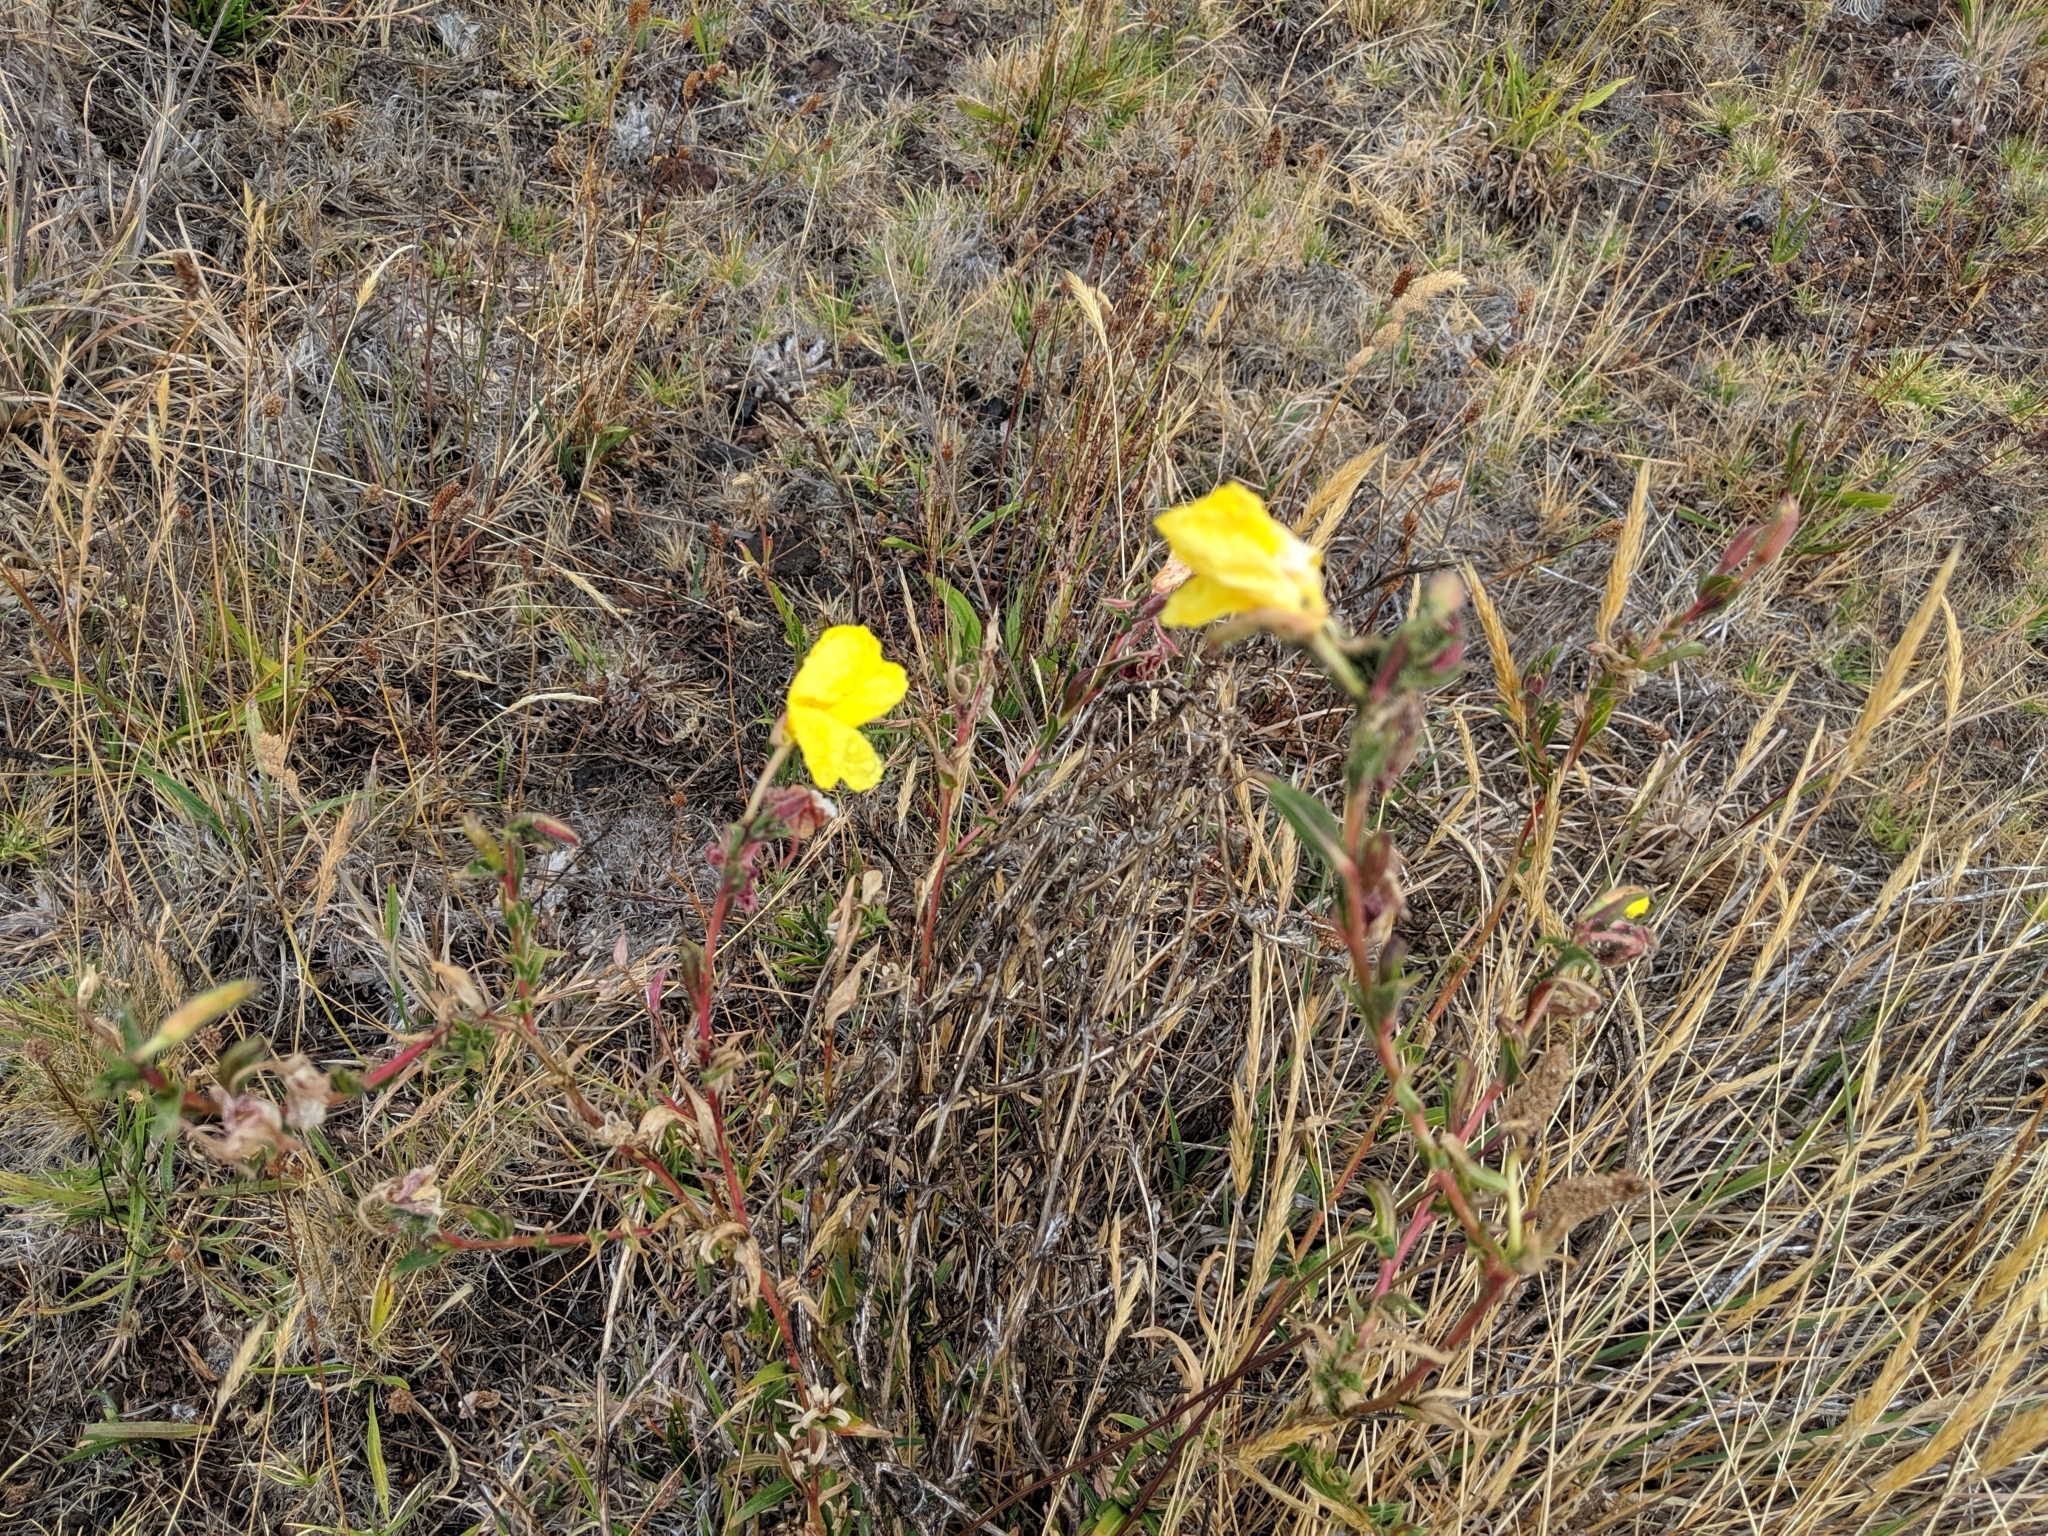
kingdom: Plantae
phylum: Tracheophyta
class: Magnoliopsida
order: Myrtales
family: Onagraceae
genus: Oenothera
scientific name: Oenothera stricta
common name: Fragrant evening-primrose
